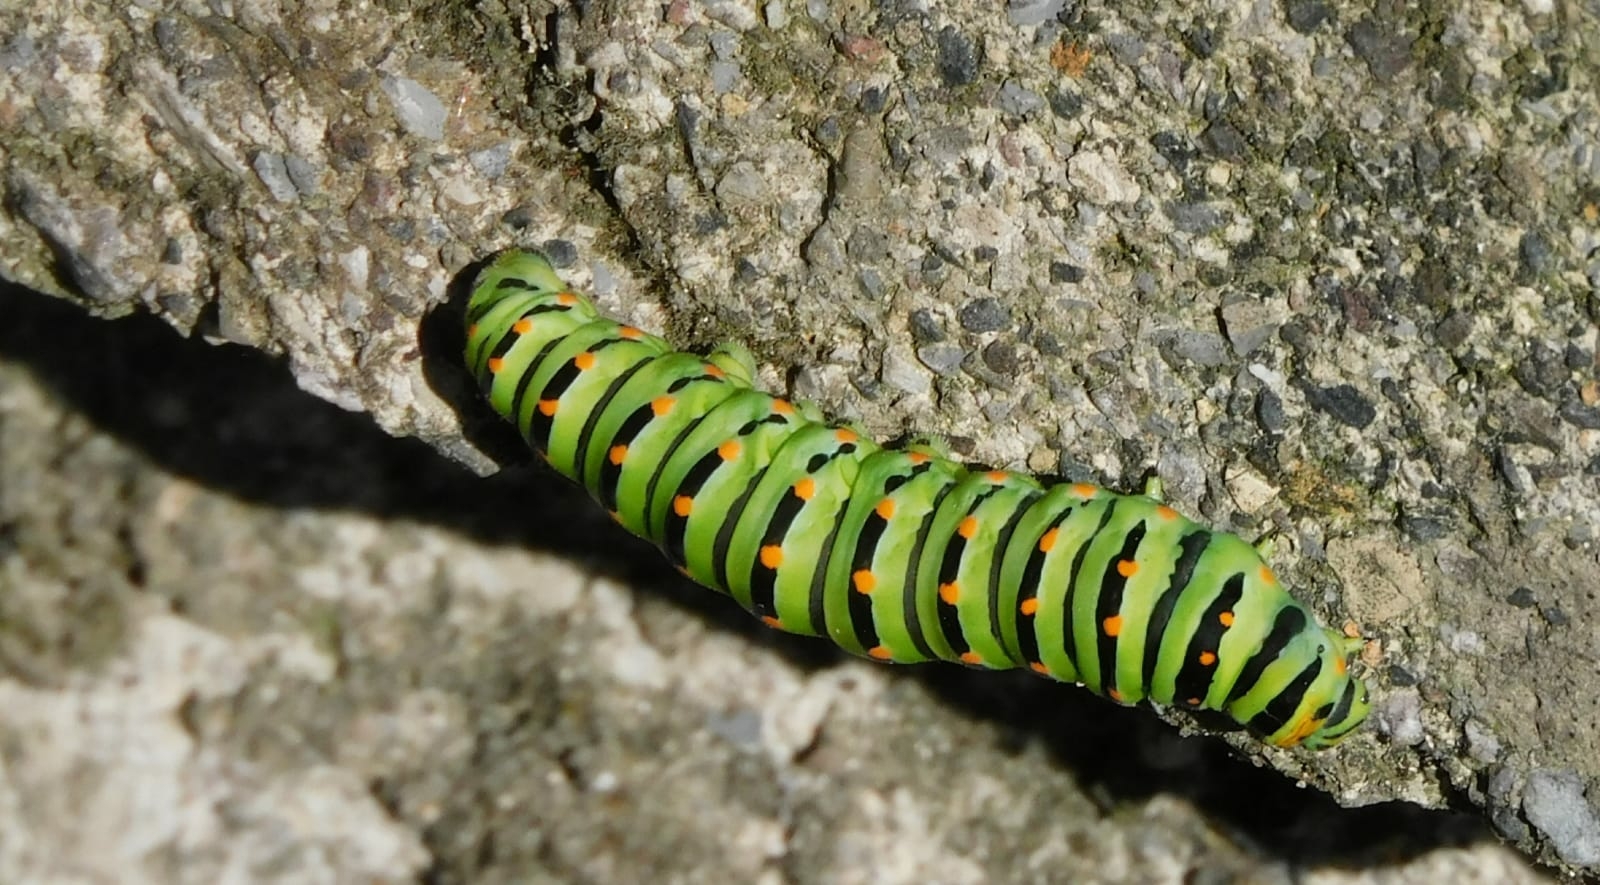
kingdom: Animalia
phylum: Arthropoda
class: Insecta
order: Lepidoptera
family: Papilionidae
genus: Papilio
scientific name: Papilio machaon
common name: Swallowtail
